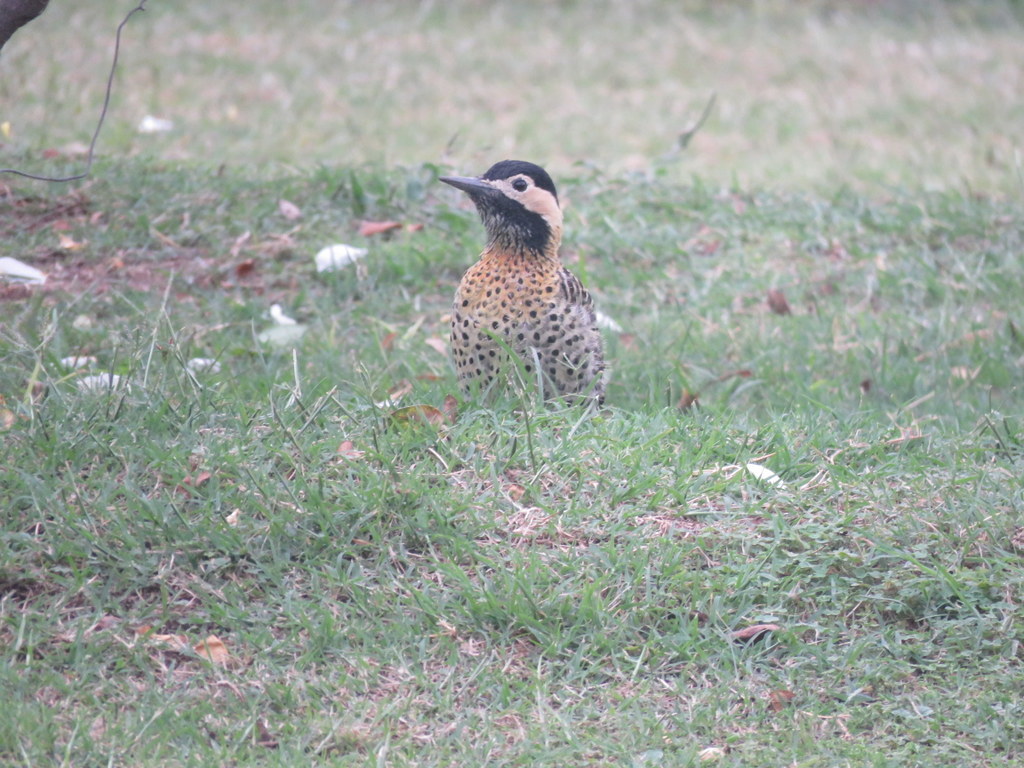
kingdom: Animalia
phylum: Chordata
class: Aves
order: Piciformes
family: Picidae
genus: Colaptes
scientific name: Colaptes melanochloros
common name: Green-barred woodpecker
